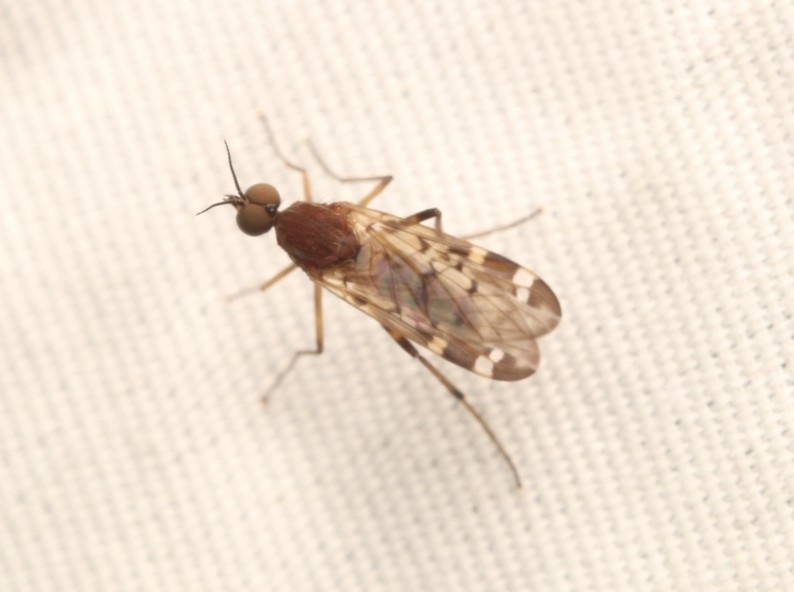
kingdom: Animalia
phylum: Arthropoda
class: Insecta
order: Diptera
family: Anisopodidae
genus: Sylvicola
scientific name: Sylvicola alternata
